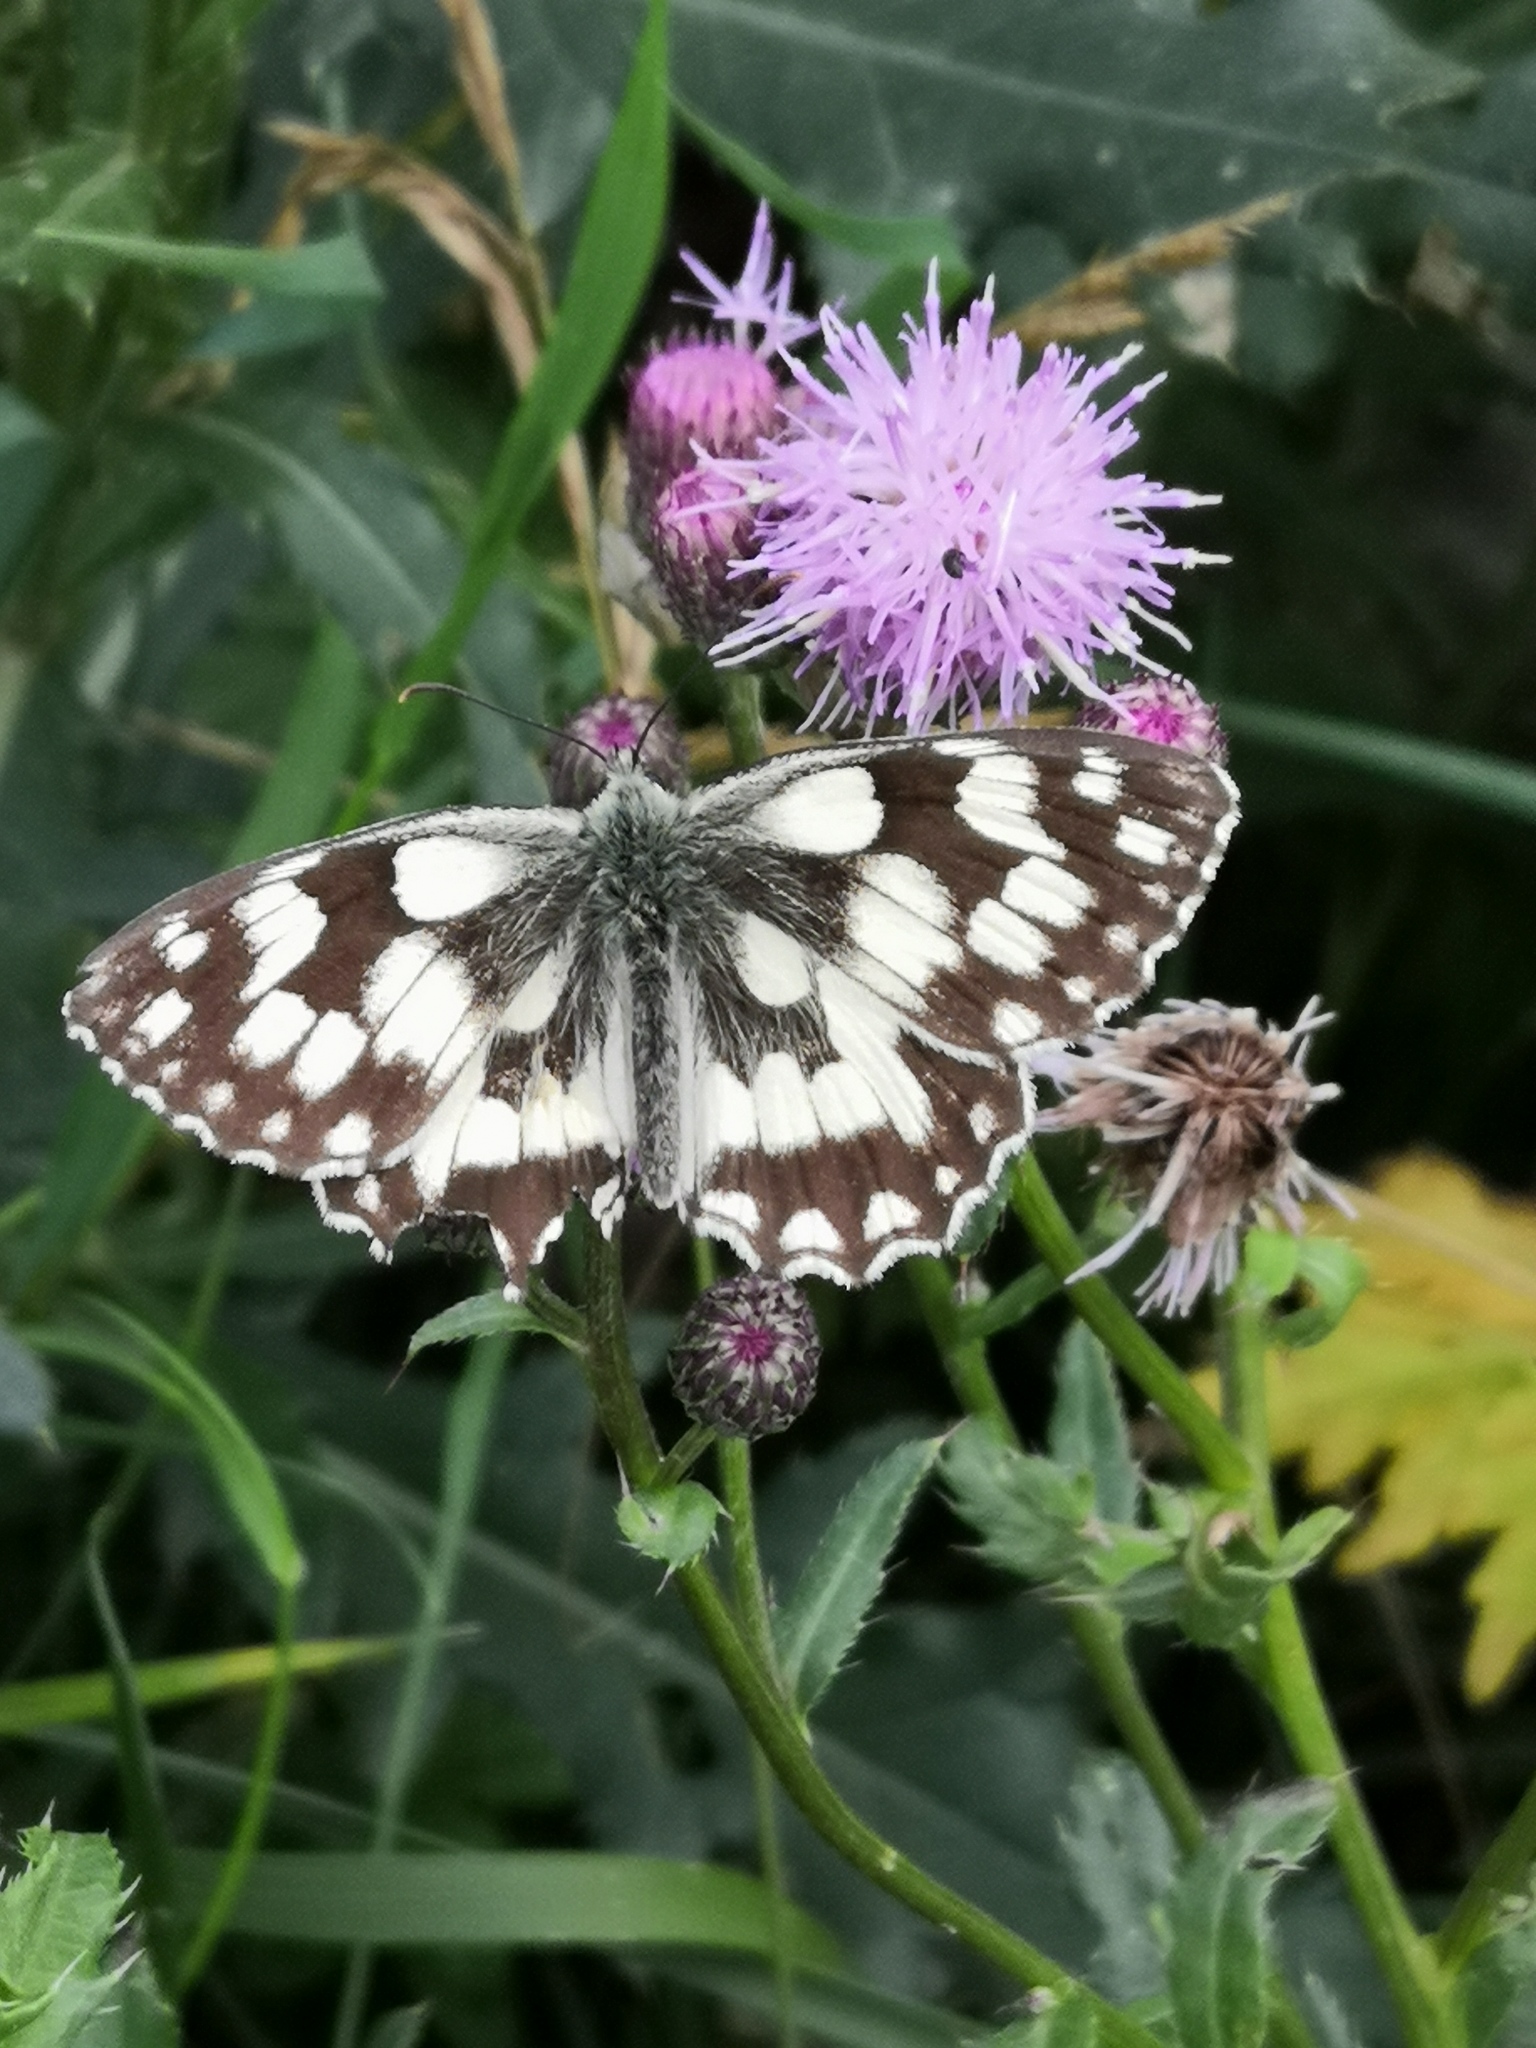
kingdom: Animalia
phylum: Arthropoda
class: Insecta
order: Lepidoptera
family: Nymphalidae
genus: Melanargia
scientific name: Melanargia galathea
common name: Marbled white
